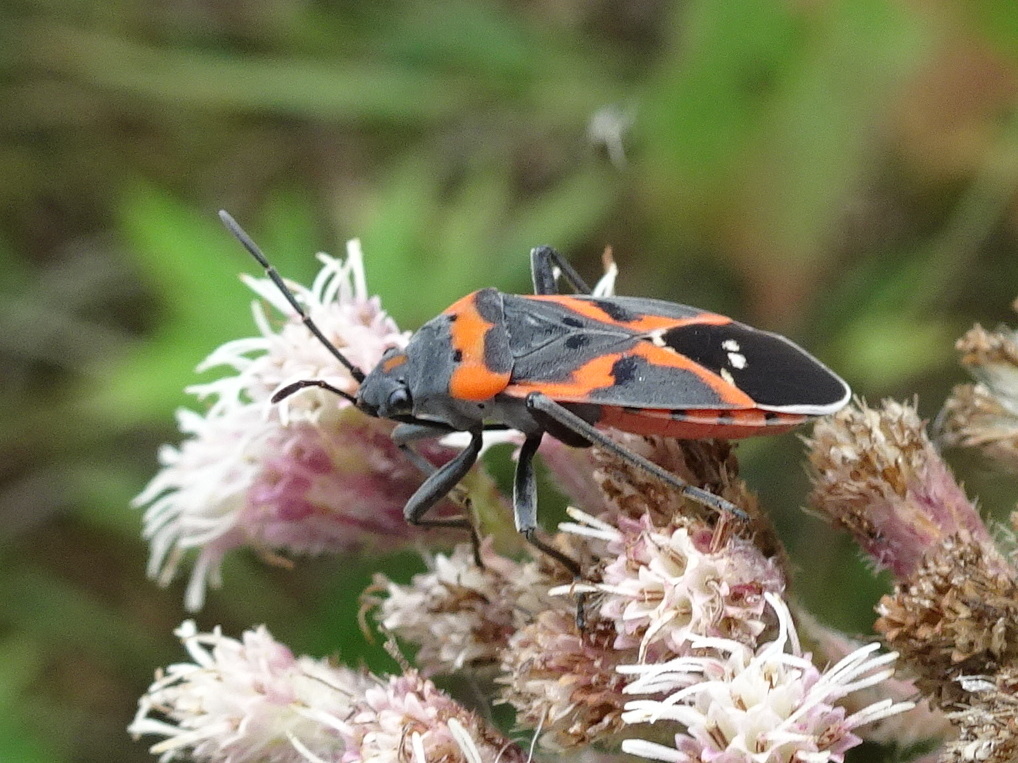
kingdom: Animalia
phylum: Arthropoda
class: Insecta
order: Hemiptera
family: Lygaeidae
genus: Lygaeus
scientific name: Lygaeus kalmii
